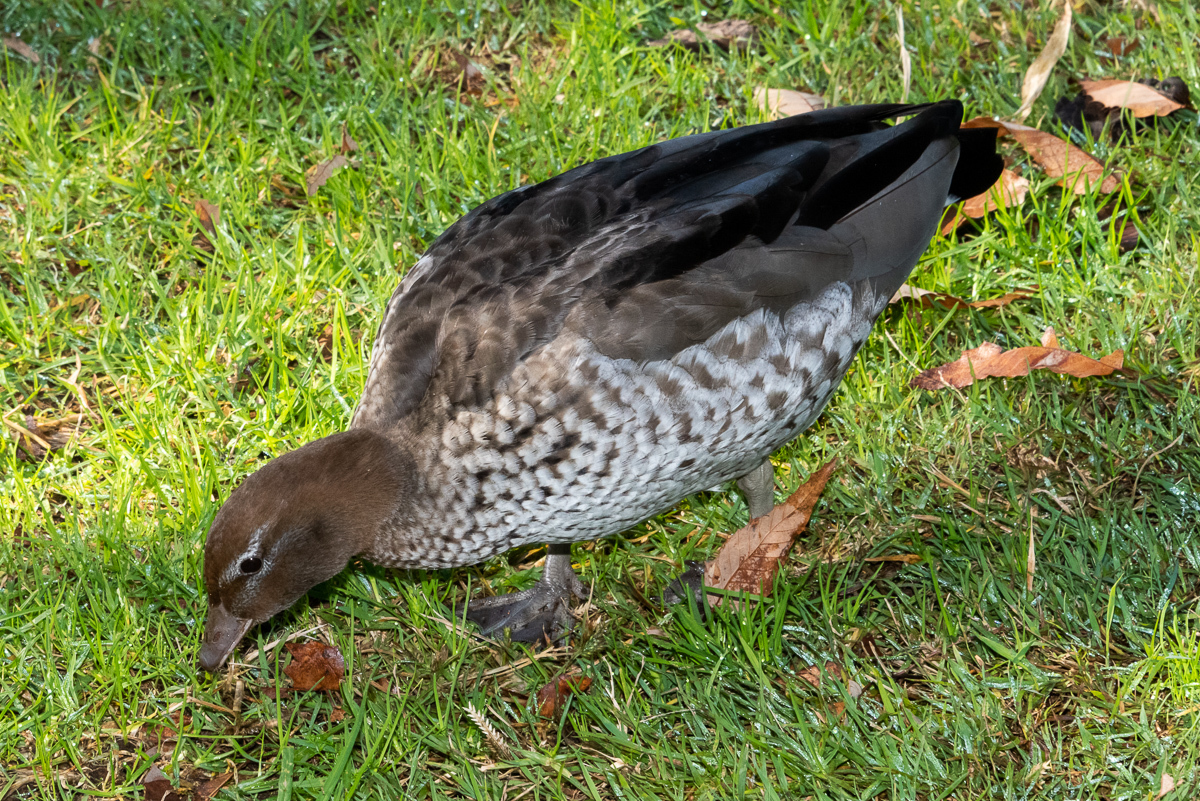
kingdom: Animalia
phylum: Chordata
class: Aves
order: Anseriformes
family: Anatidae
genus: Chenonetta
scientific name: Chenonetta jubata
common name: Maned duck
